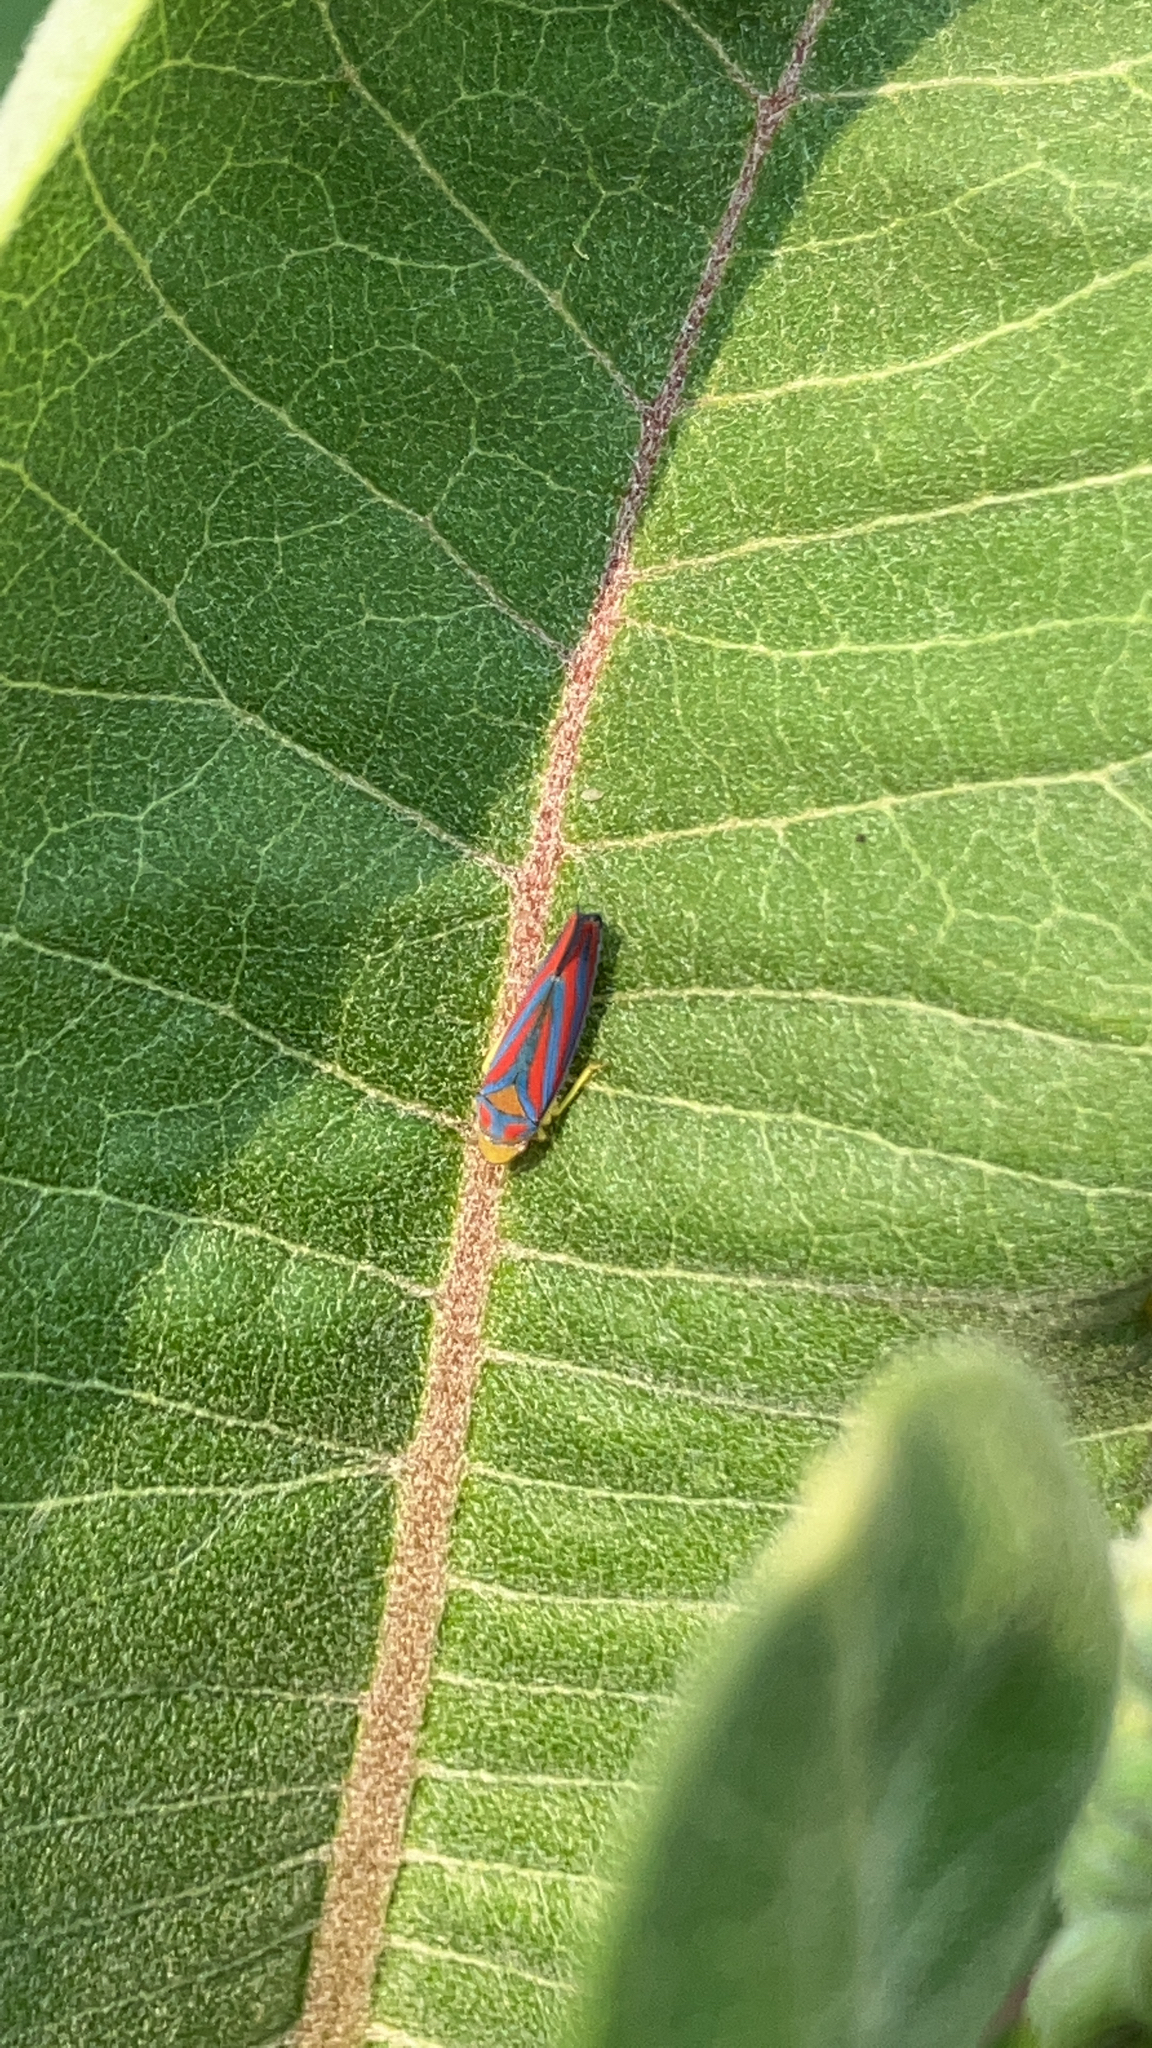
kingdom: Animalia
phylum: Arthropoda
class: Insecta
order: Hemiptera
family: Cicadellidae
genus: Graphocephala
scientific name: Graphocephala coccinea
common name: Candy-striped leafhopper
